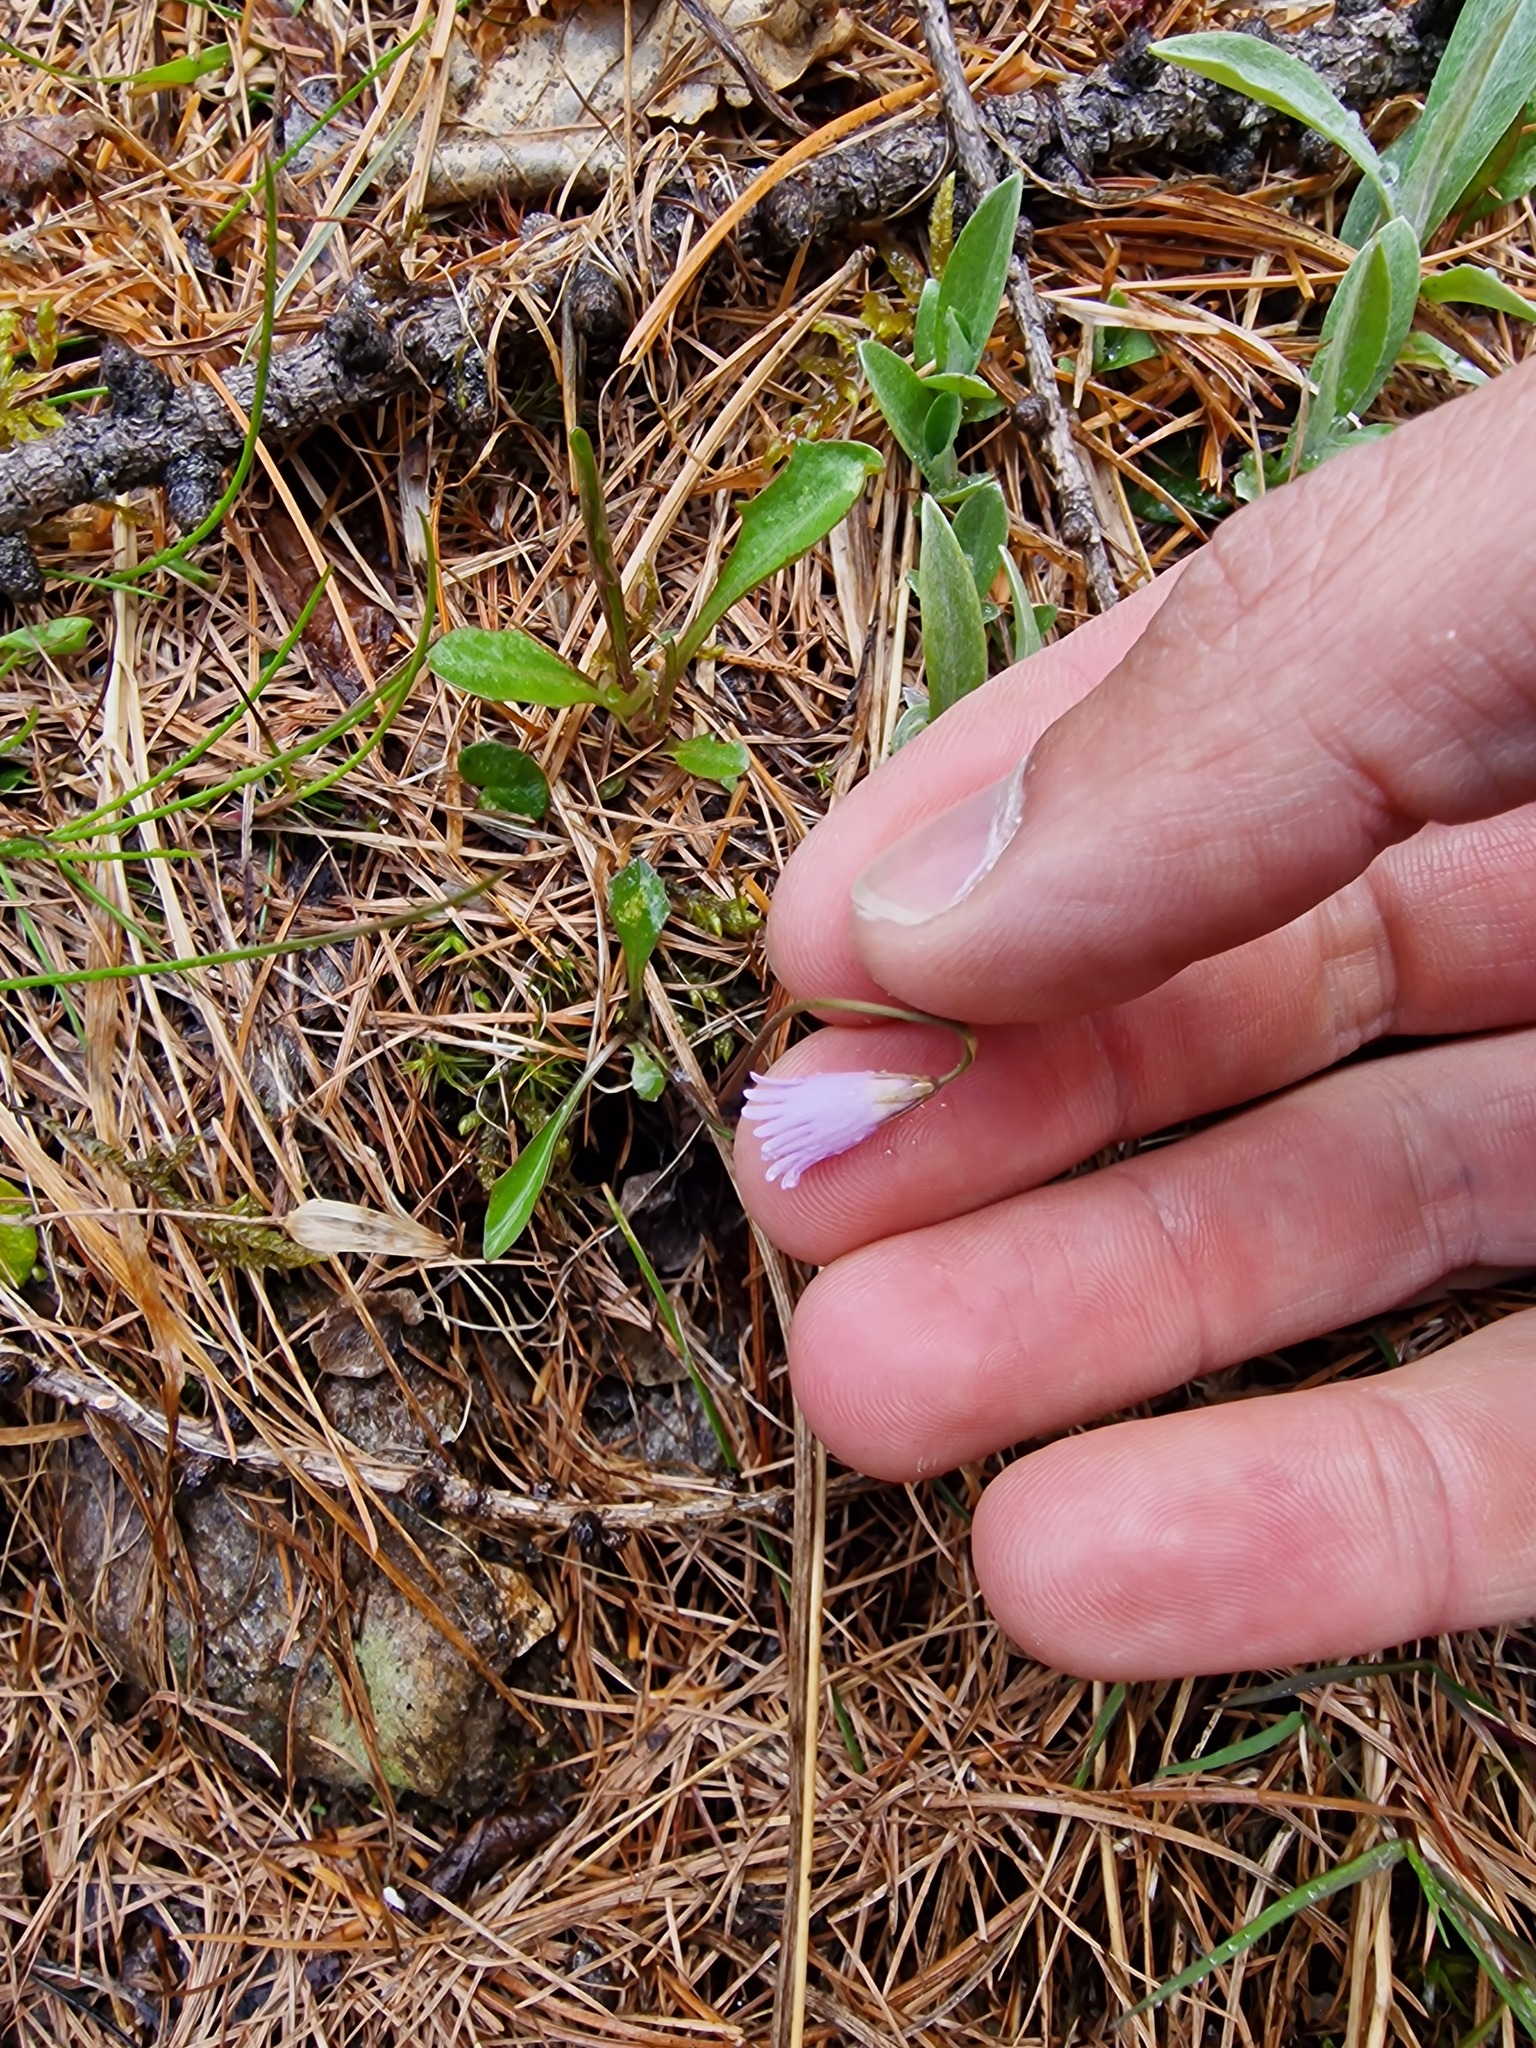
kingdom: Plantae
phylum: Tracheophyta
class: Magnoliopsida
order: Ericales
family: Primulaceae
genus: Soldanella
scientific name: Soldanella alpicola
